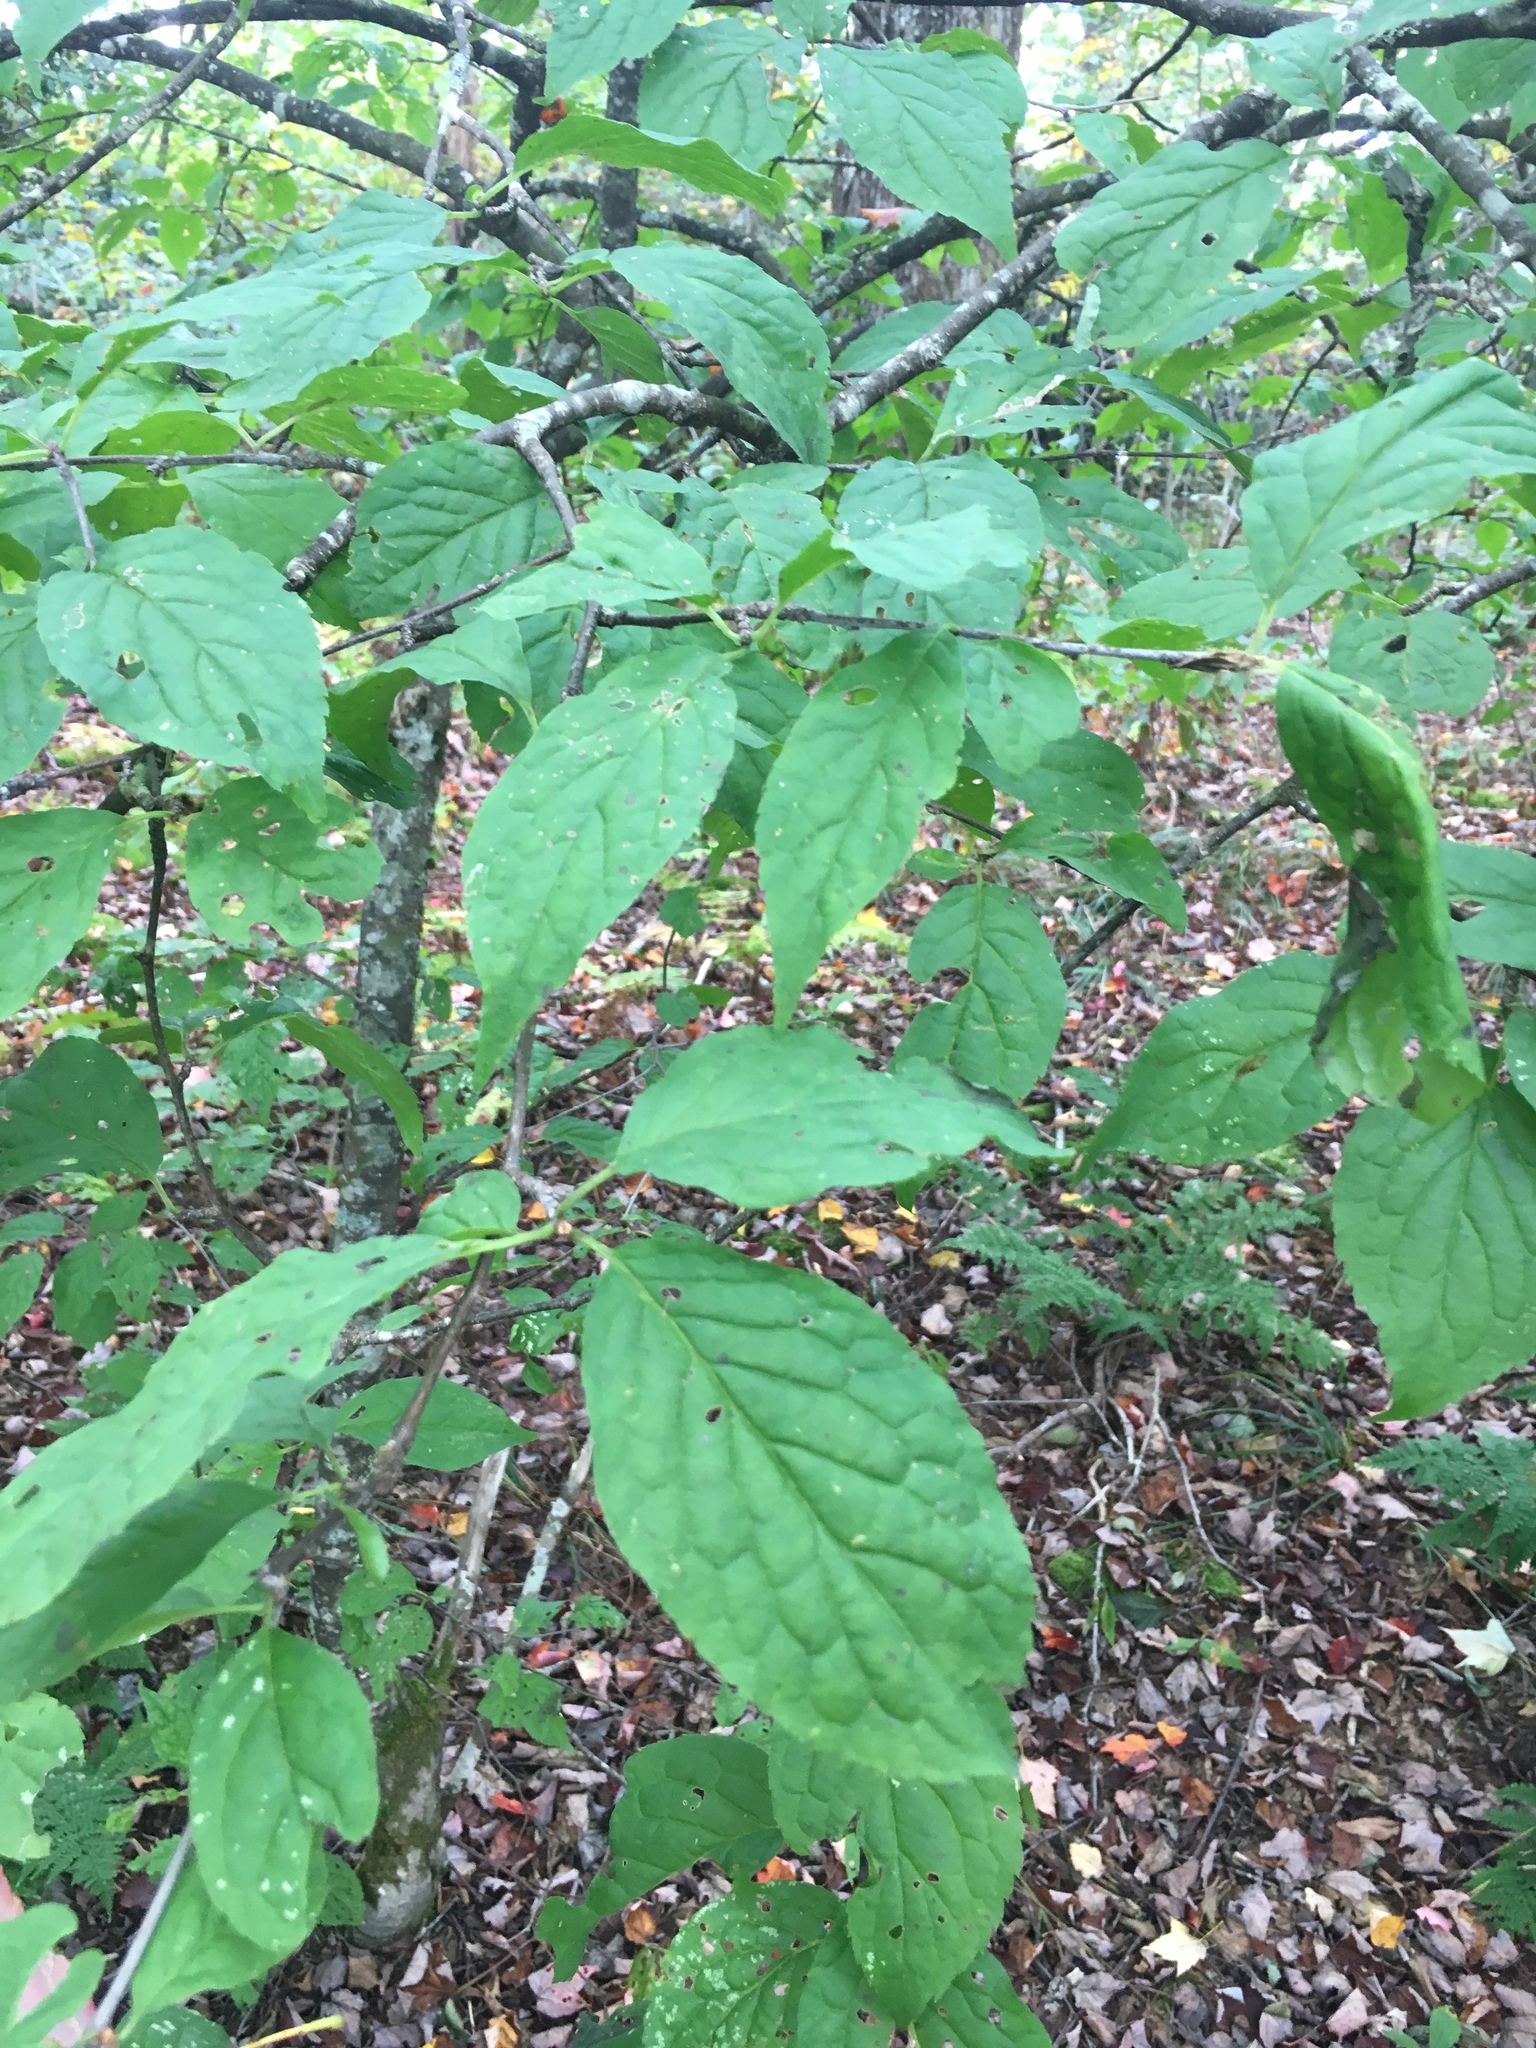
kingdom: Plantae
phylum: Tracheophyta
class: Magnoliopsida
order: Aquifoliales
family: Aquifoliaceae
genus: Ilex
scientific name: Ilex montana
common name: Mountain winterberry
